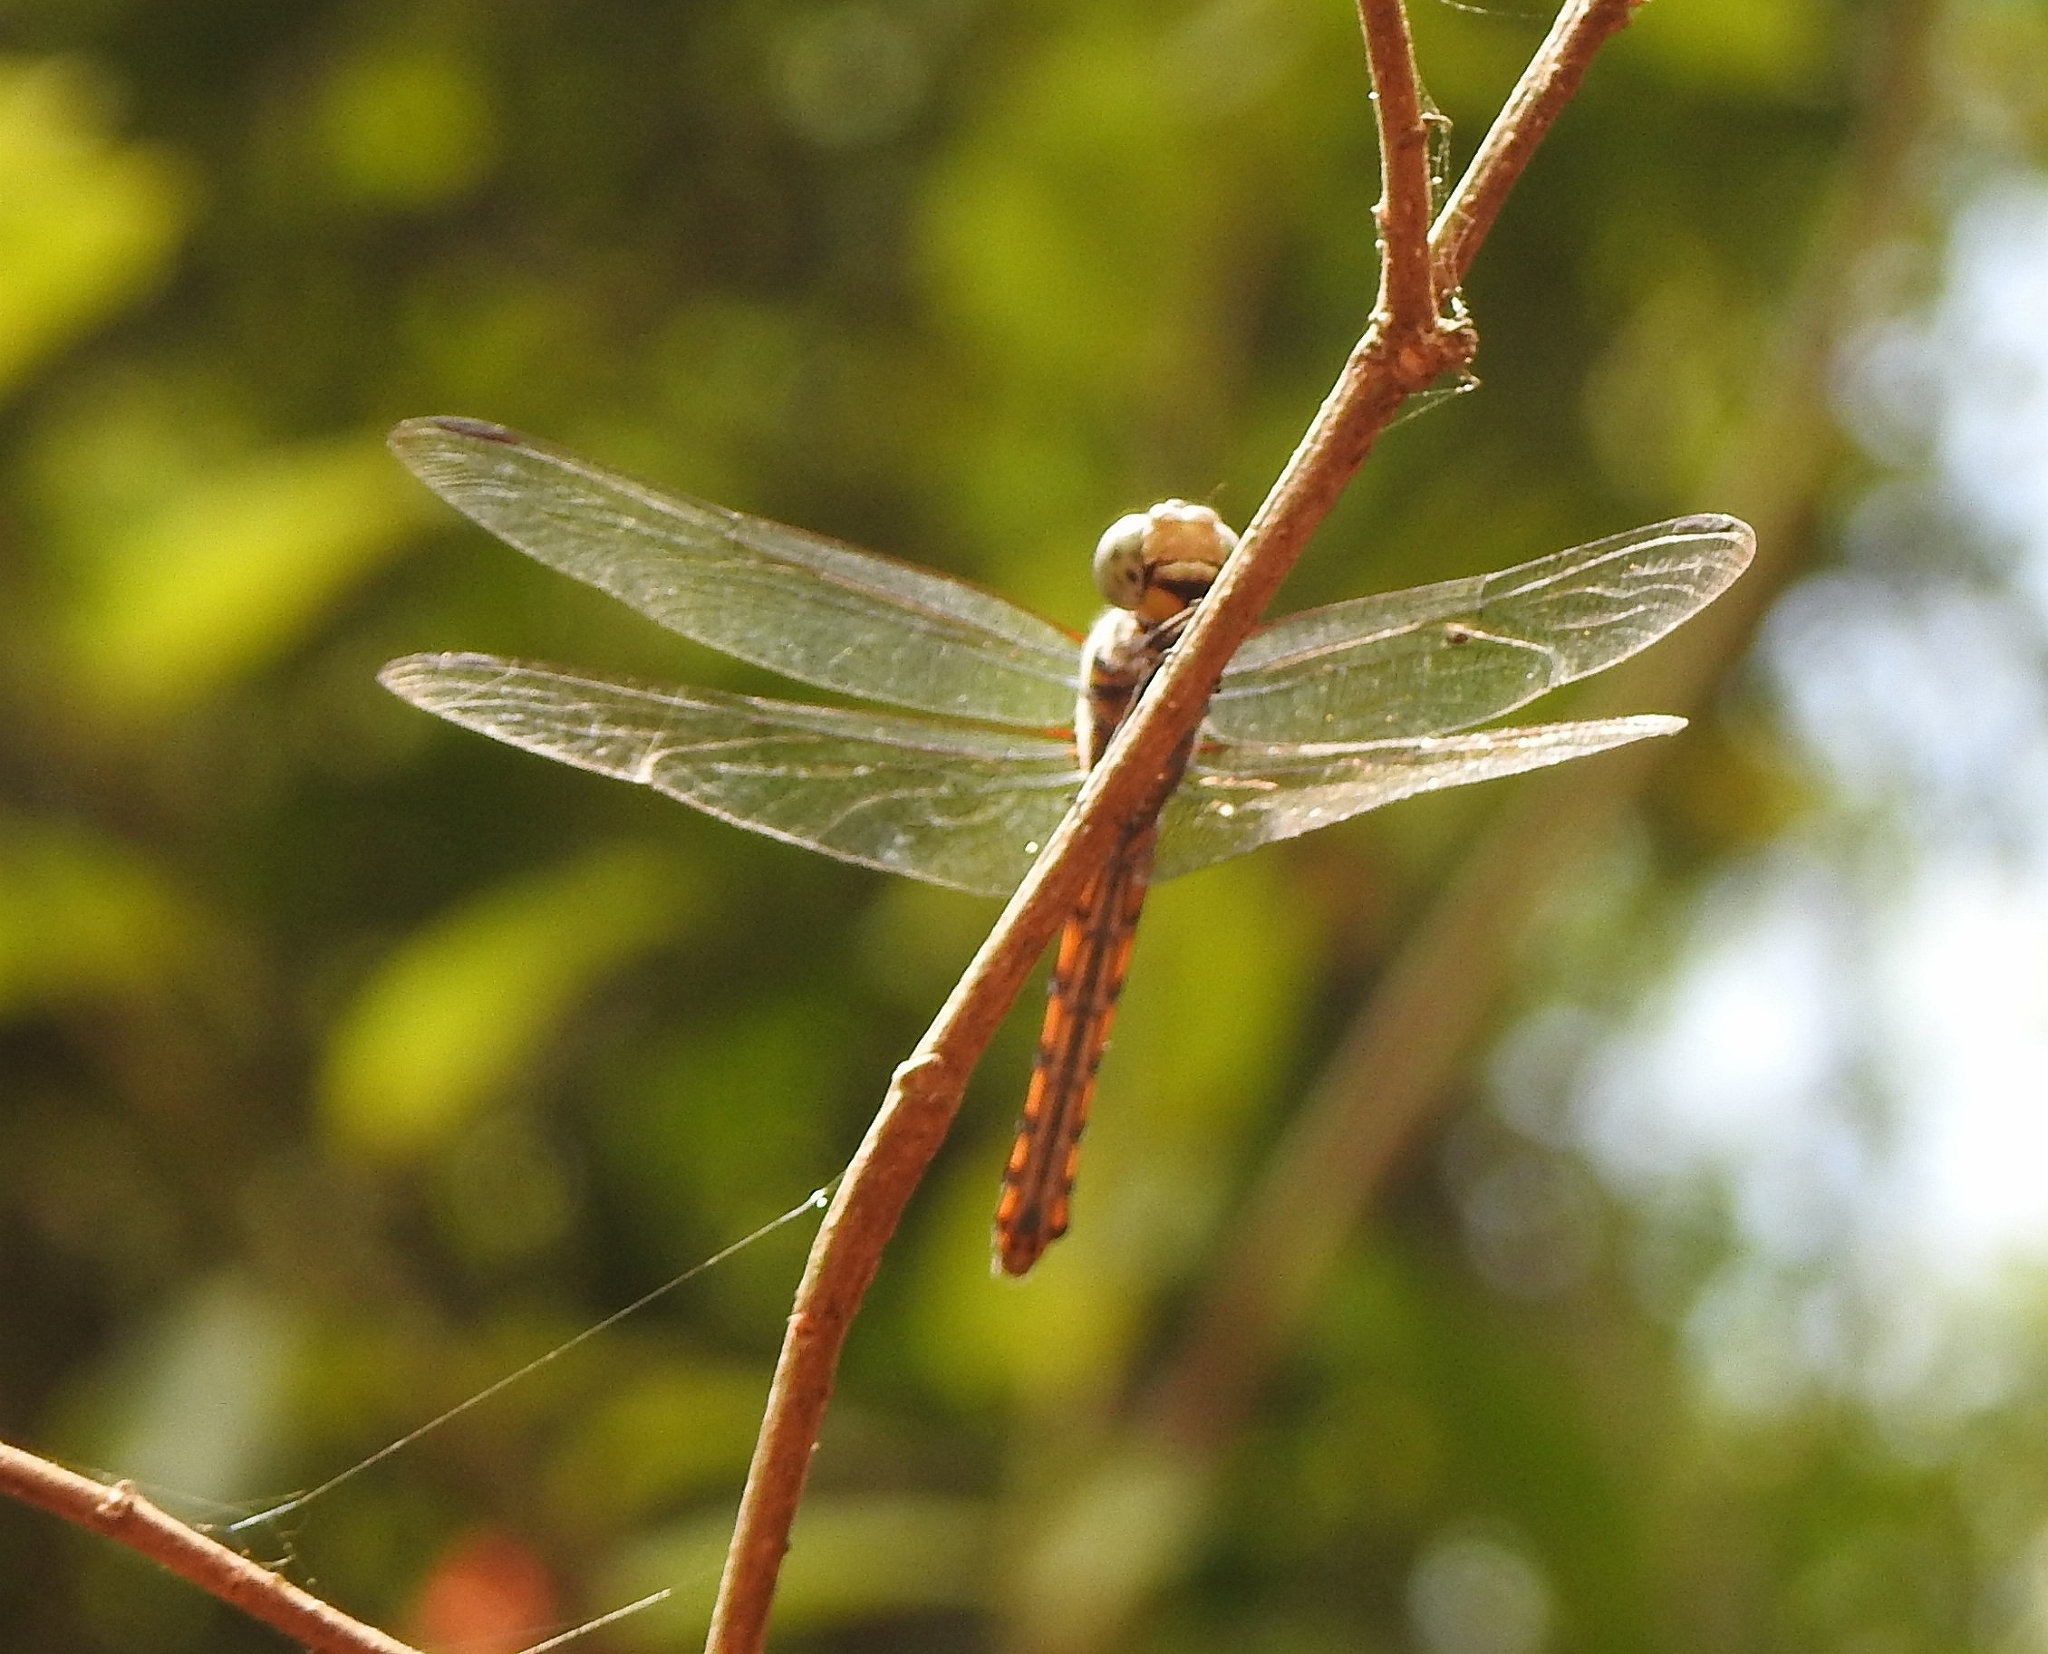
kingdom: Animalia
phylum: Arthropoda
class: Insecta
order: Odonata
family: Libellulidae
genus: Potamarcha
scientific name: Potamarcha congener
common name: Blue chaser
